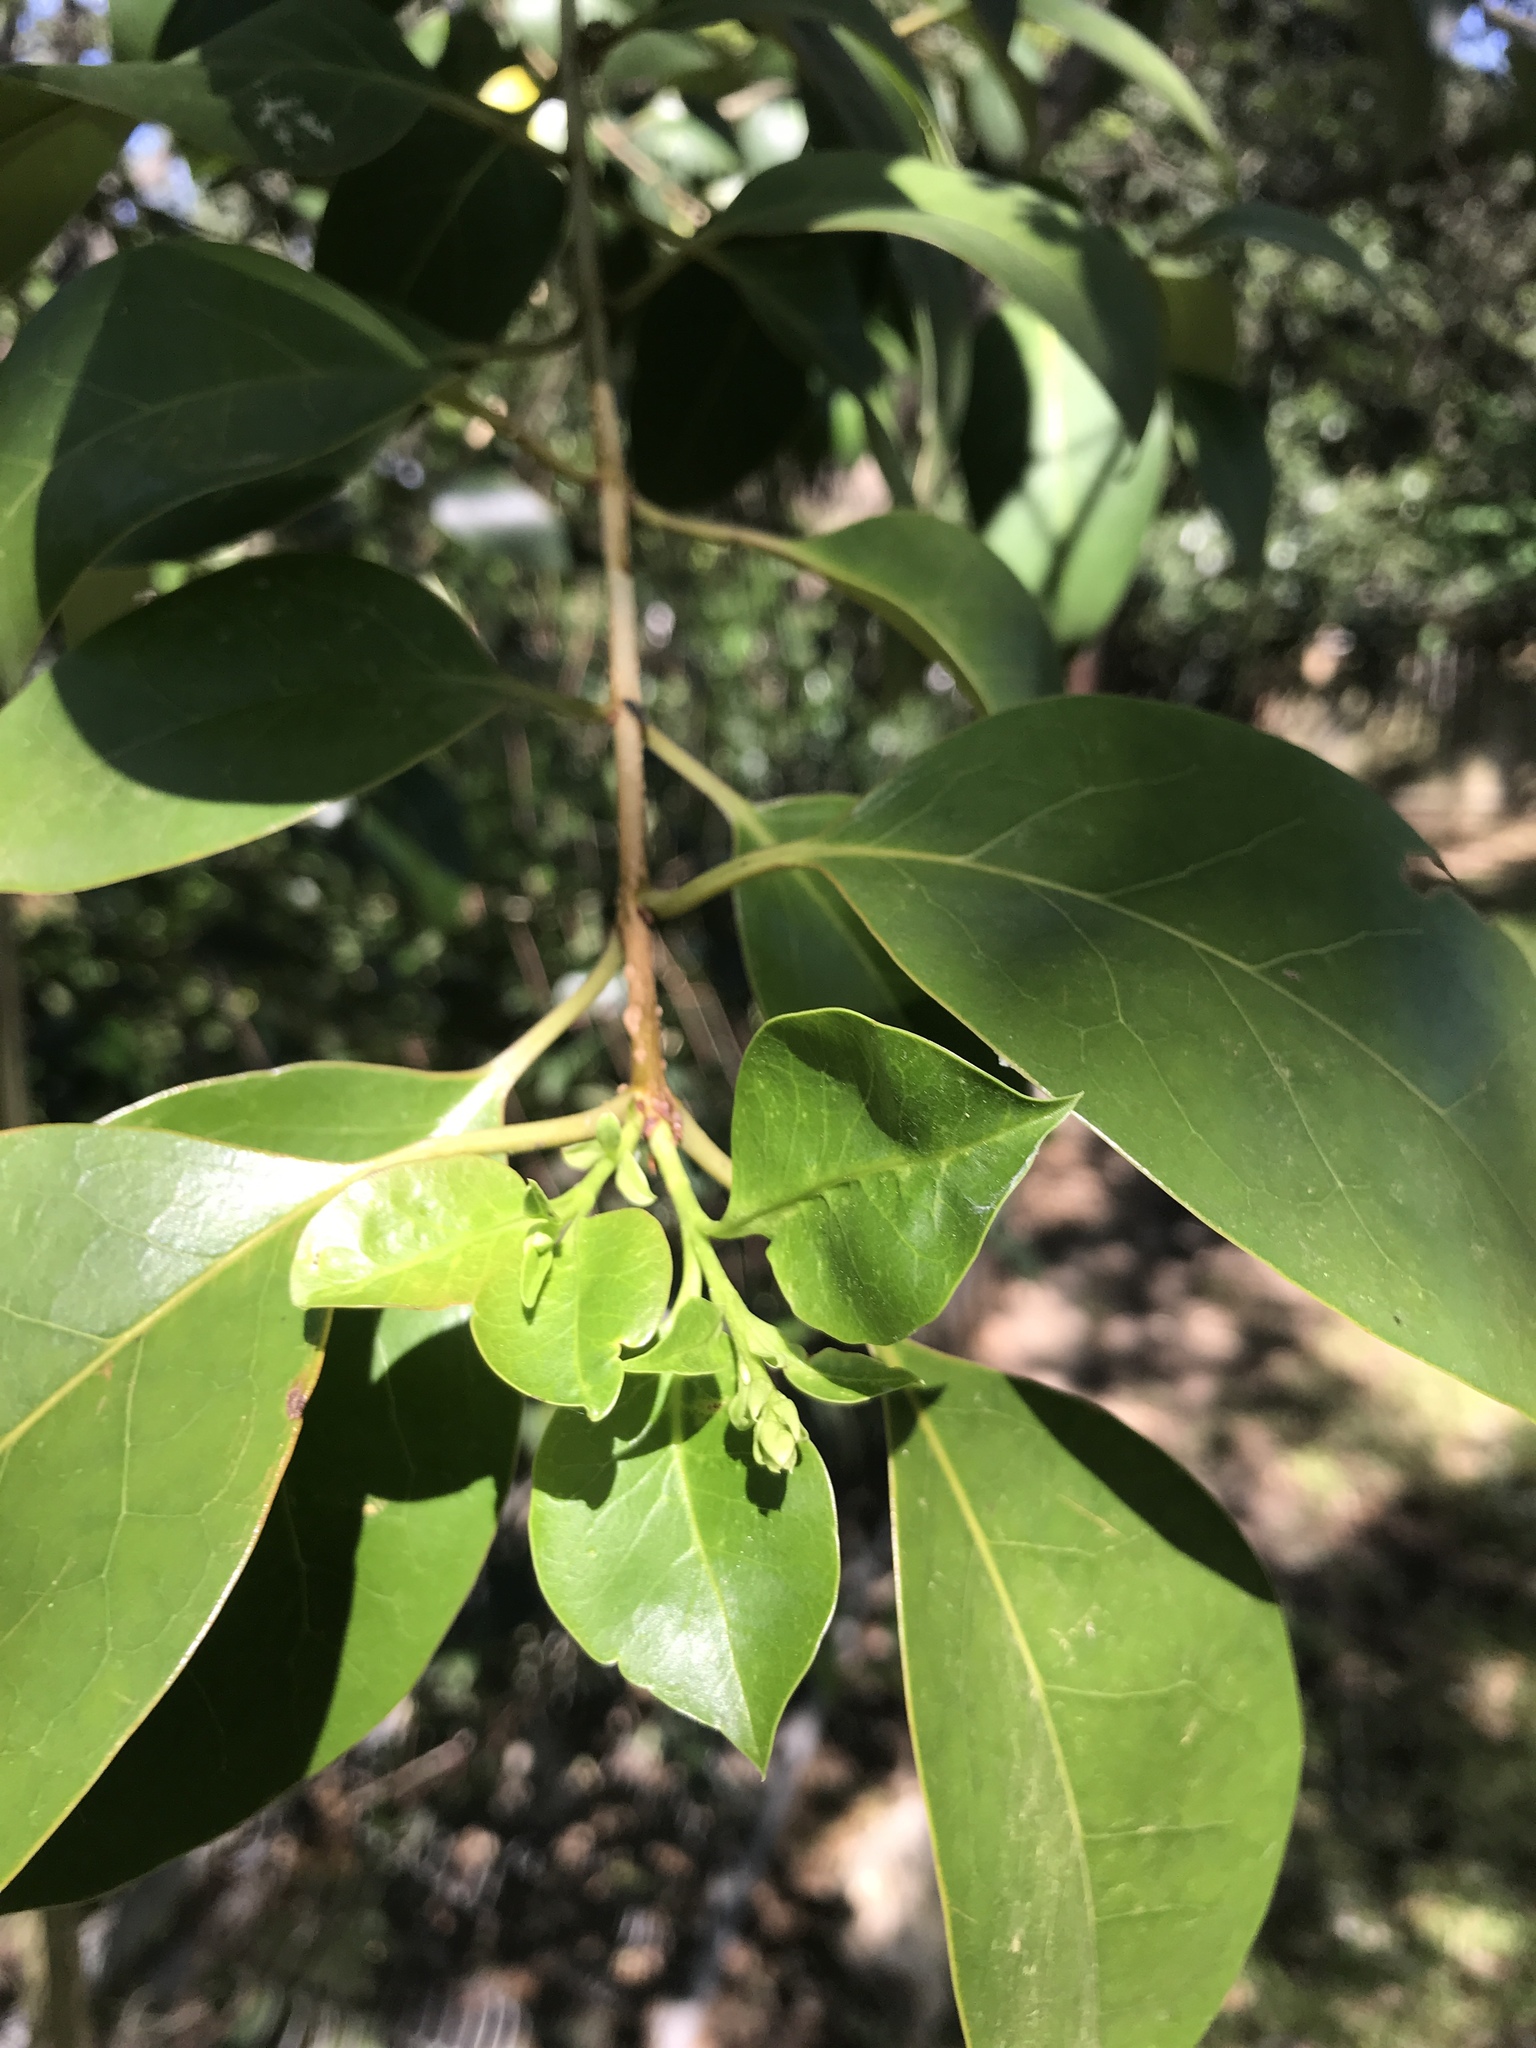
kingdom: Plantae
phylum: Tracheophyta
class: Magnoliopsida
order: Lamiales
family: Oleaceae
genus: Ligustrum
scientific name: Ligustrum lucidum
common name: Glossy privet
